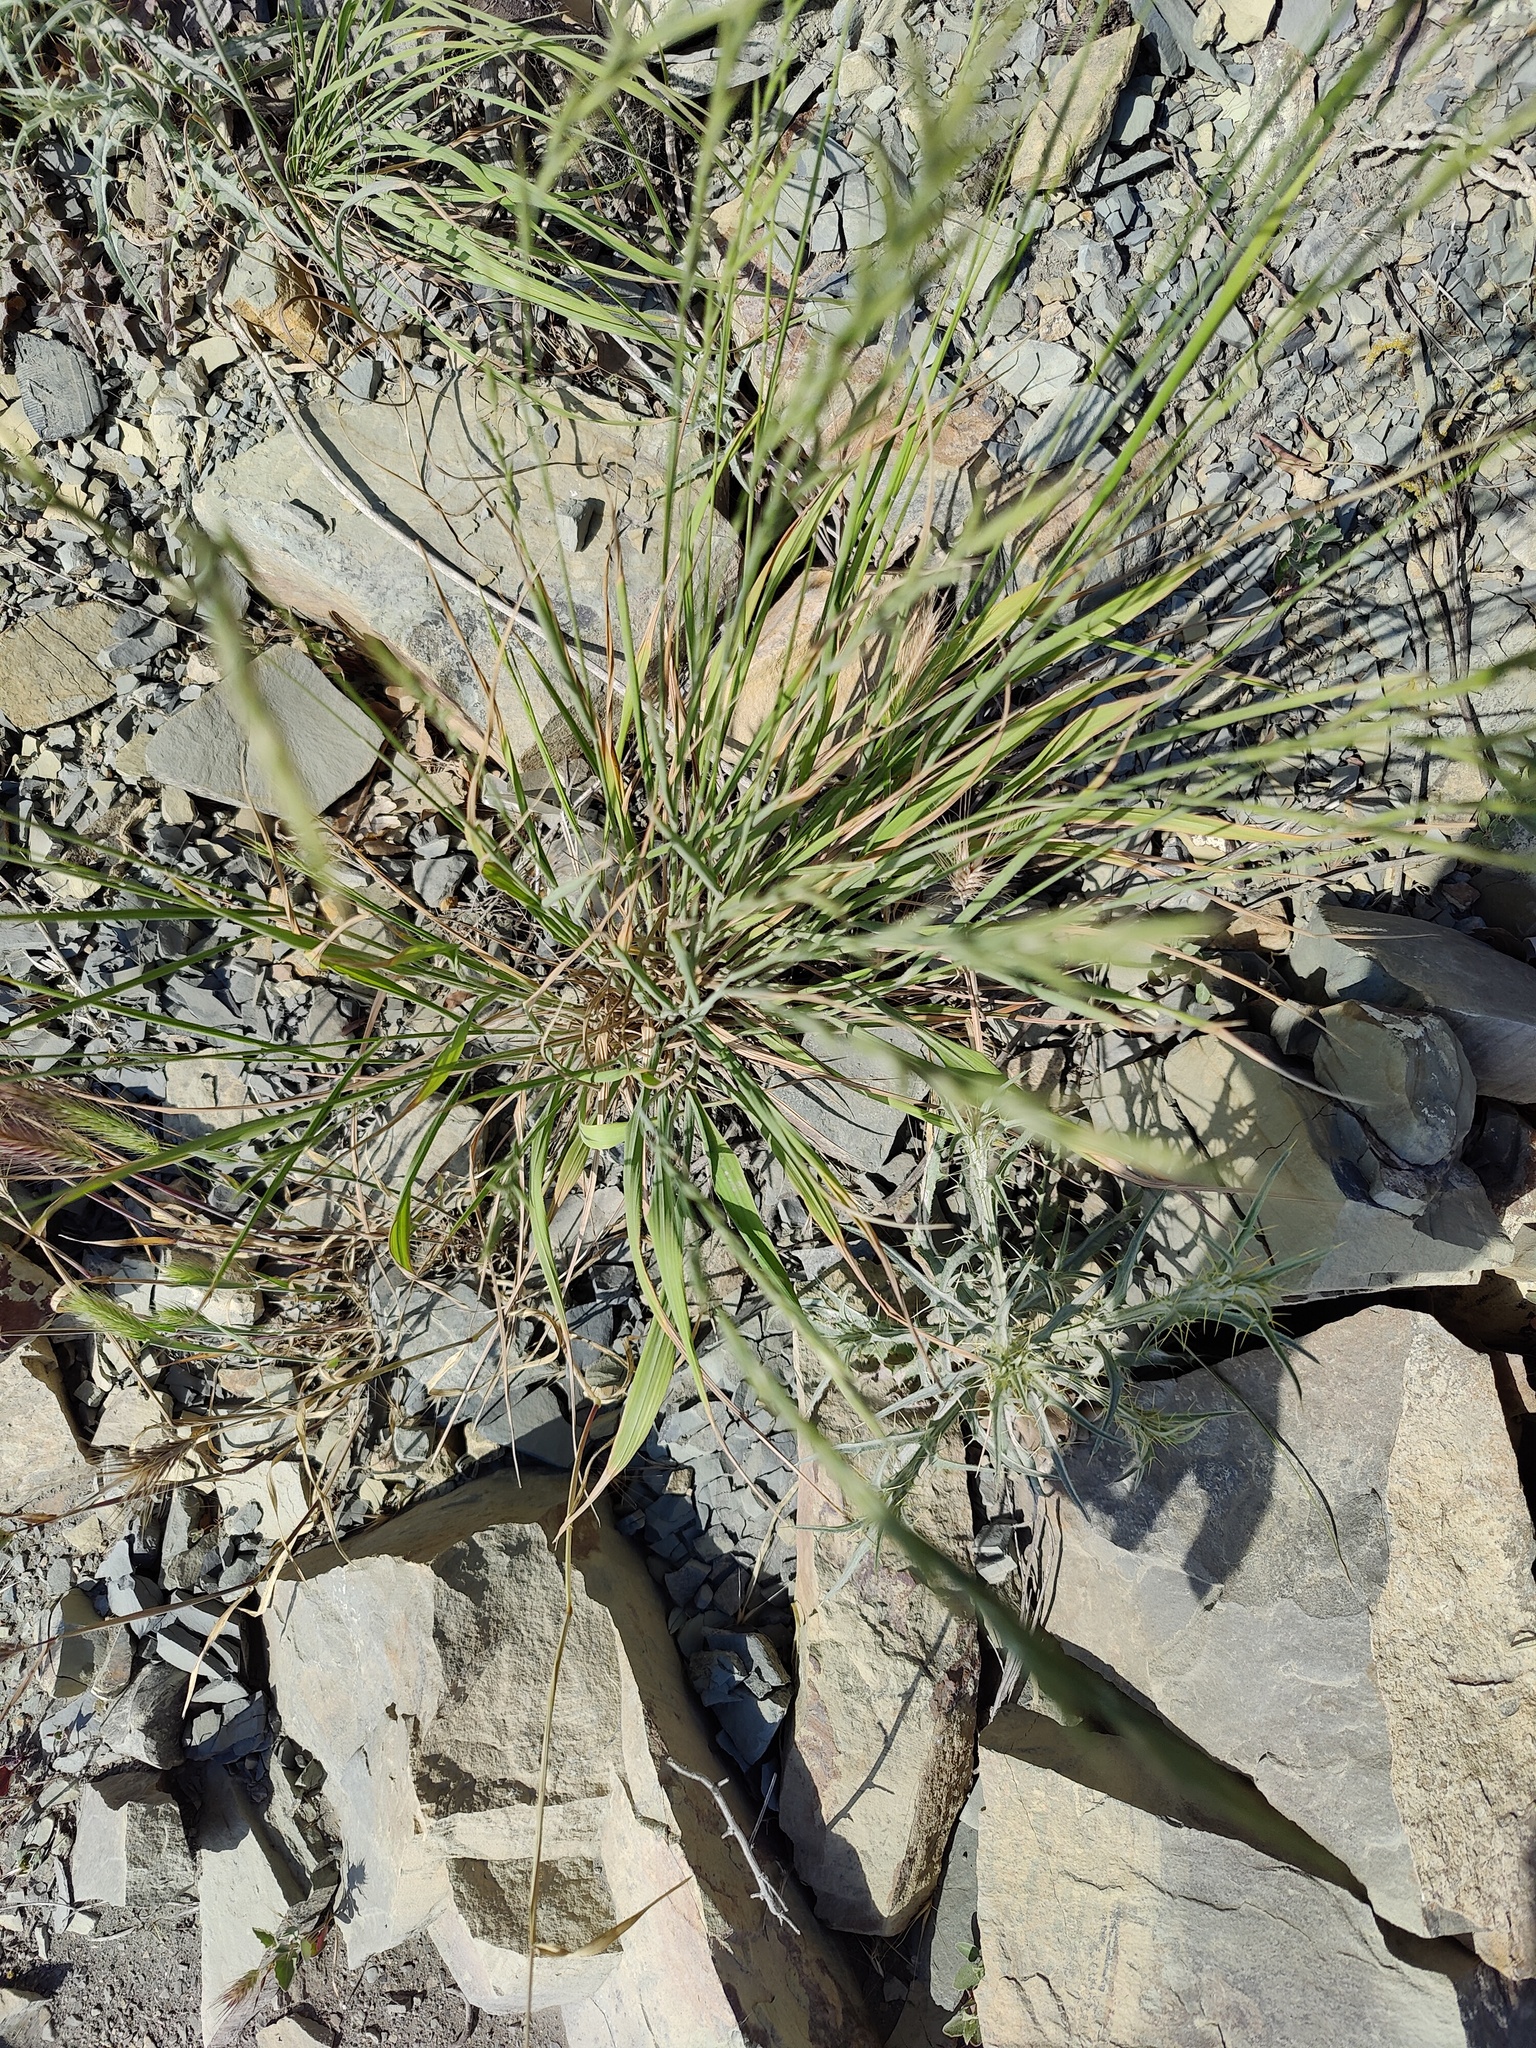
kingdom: Plantae
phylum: Tracheophyta
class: Liliopsida
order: Poales
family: Poaceae
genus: Brachypodium
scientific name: Brachypodium sylvaticum
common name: False-brome
